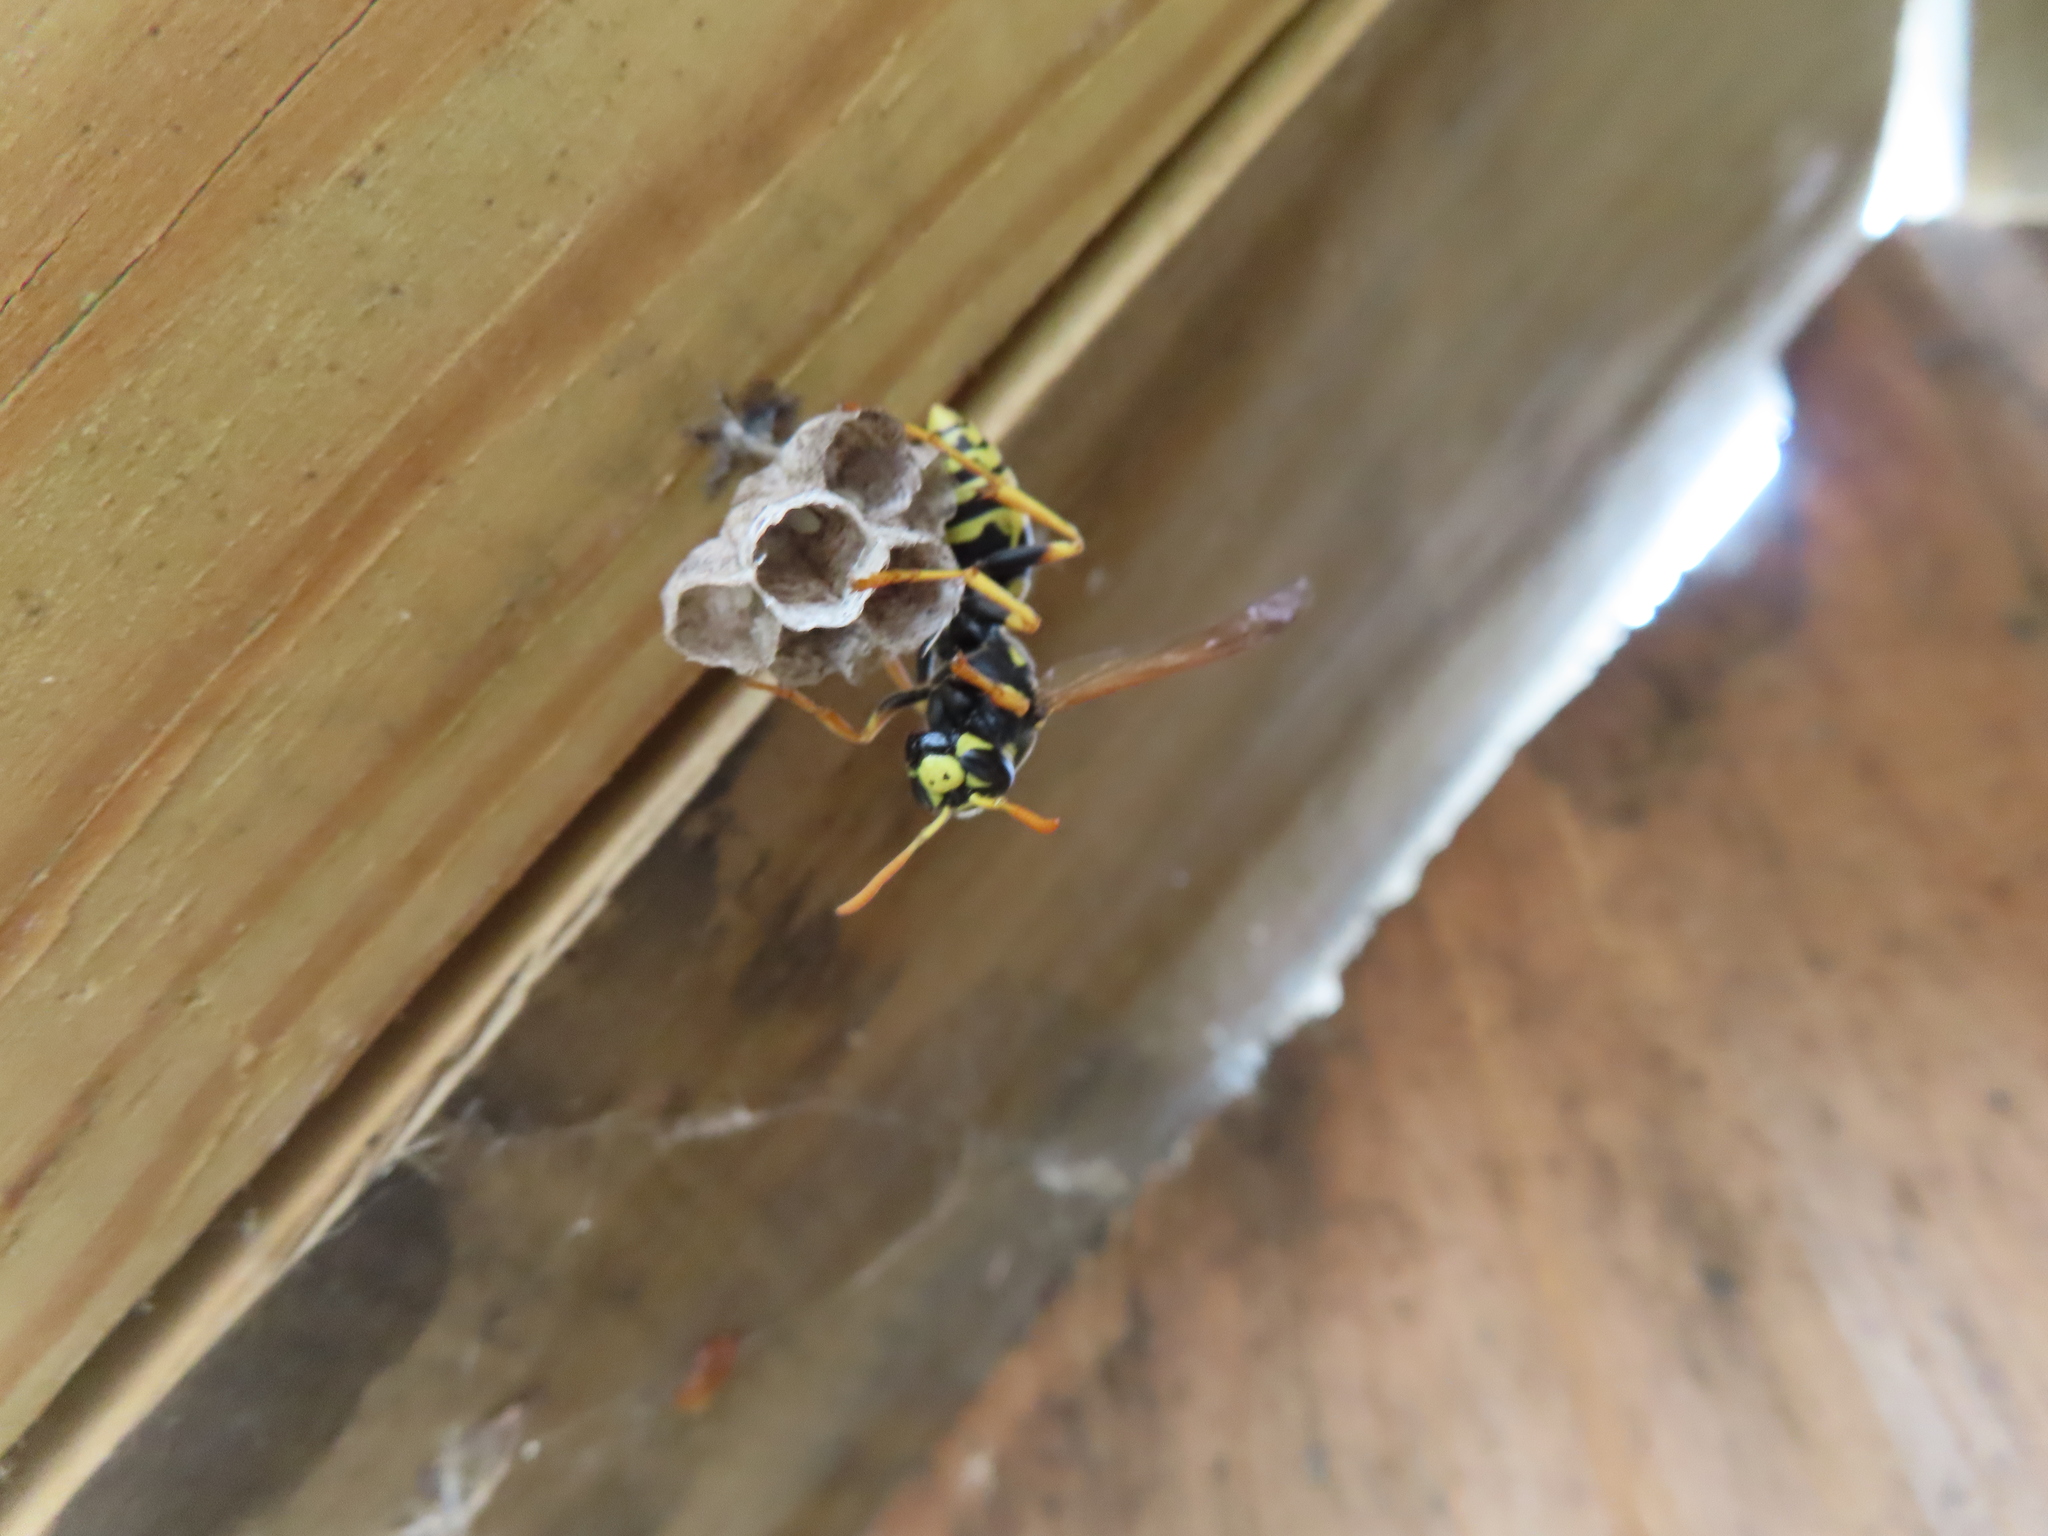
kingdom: Animalia
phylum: Arthropoda
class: Insecta
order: Hymenoptera
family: Eumenidae
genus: Polistes
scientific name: Polistes dominula
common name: Paper wasp
